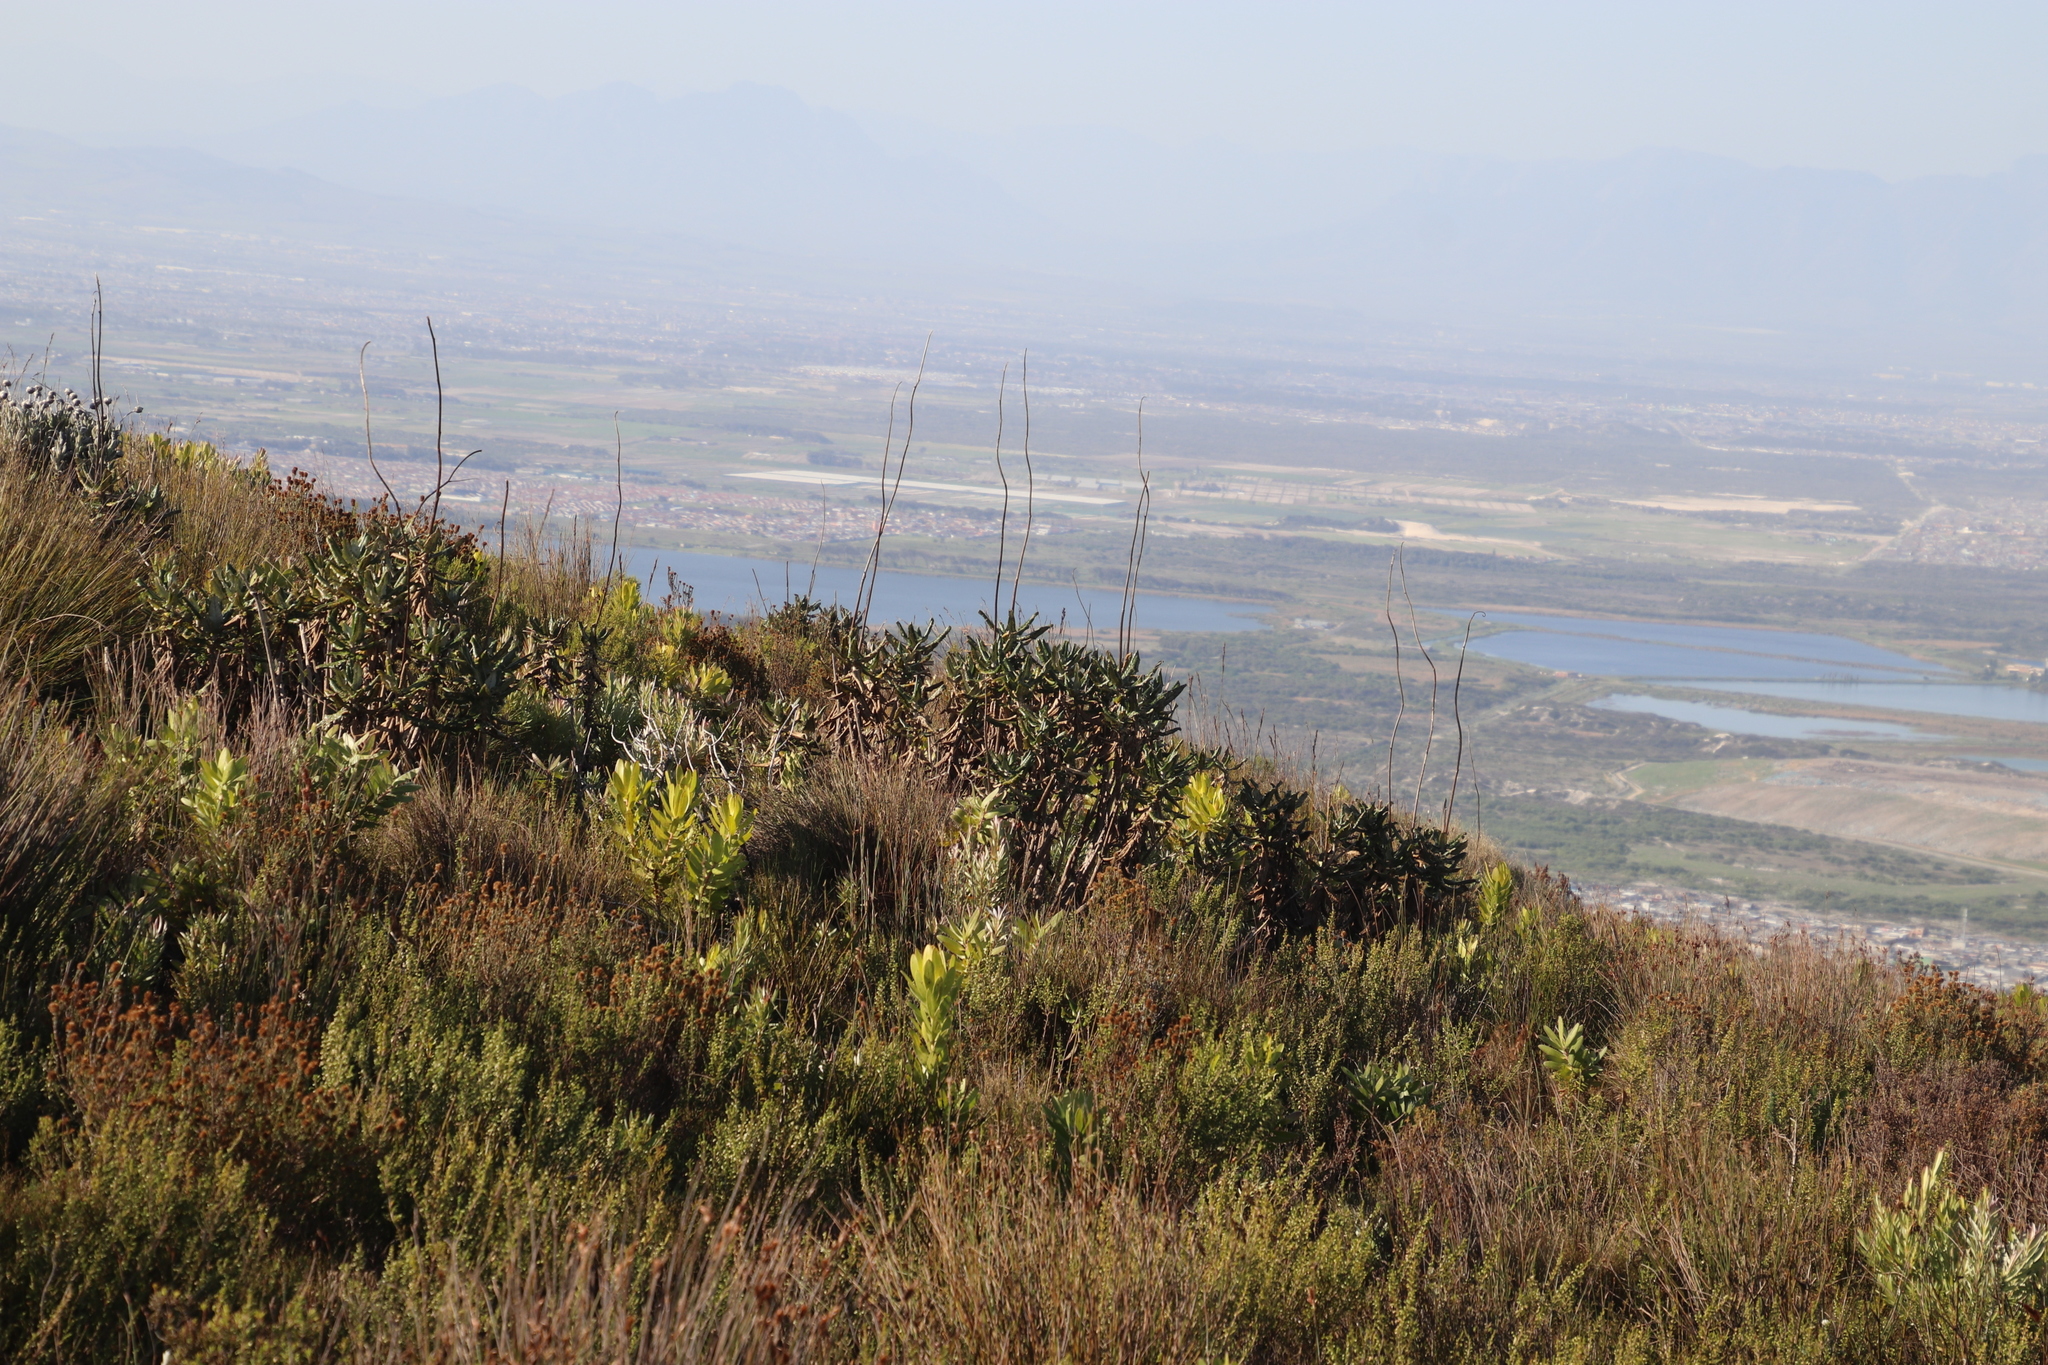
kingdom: Plantae
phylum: Tracheophyta
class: Magnoliopsida
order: Apiales
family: Apiaceae
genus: Hermas
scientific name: Hermas villosa
